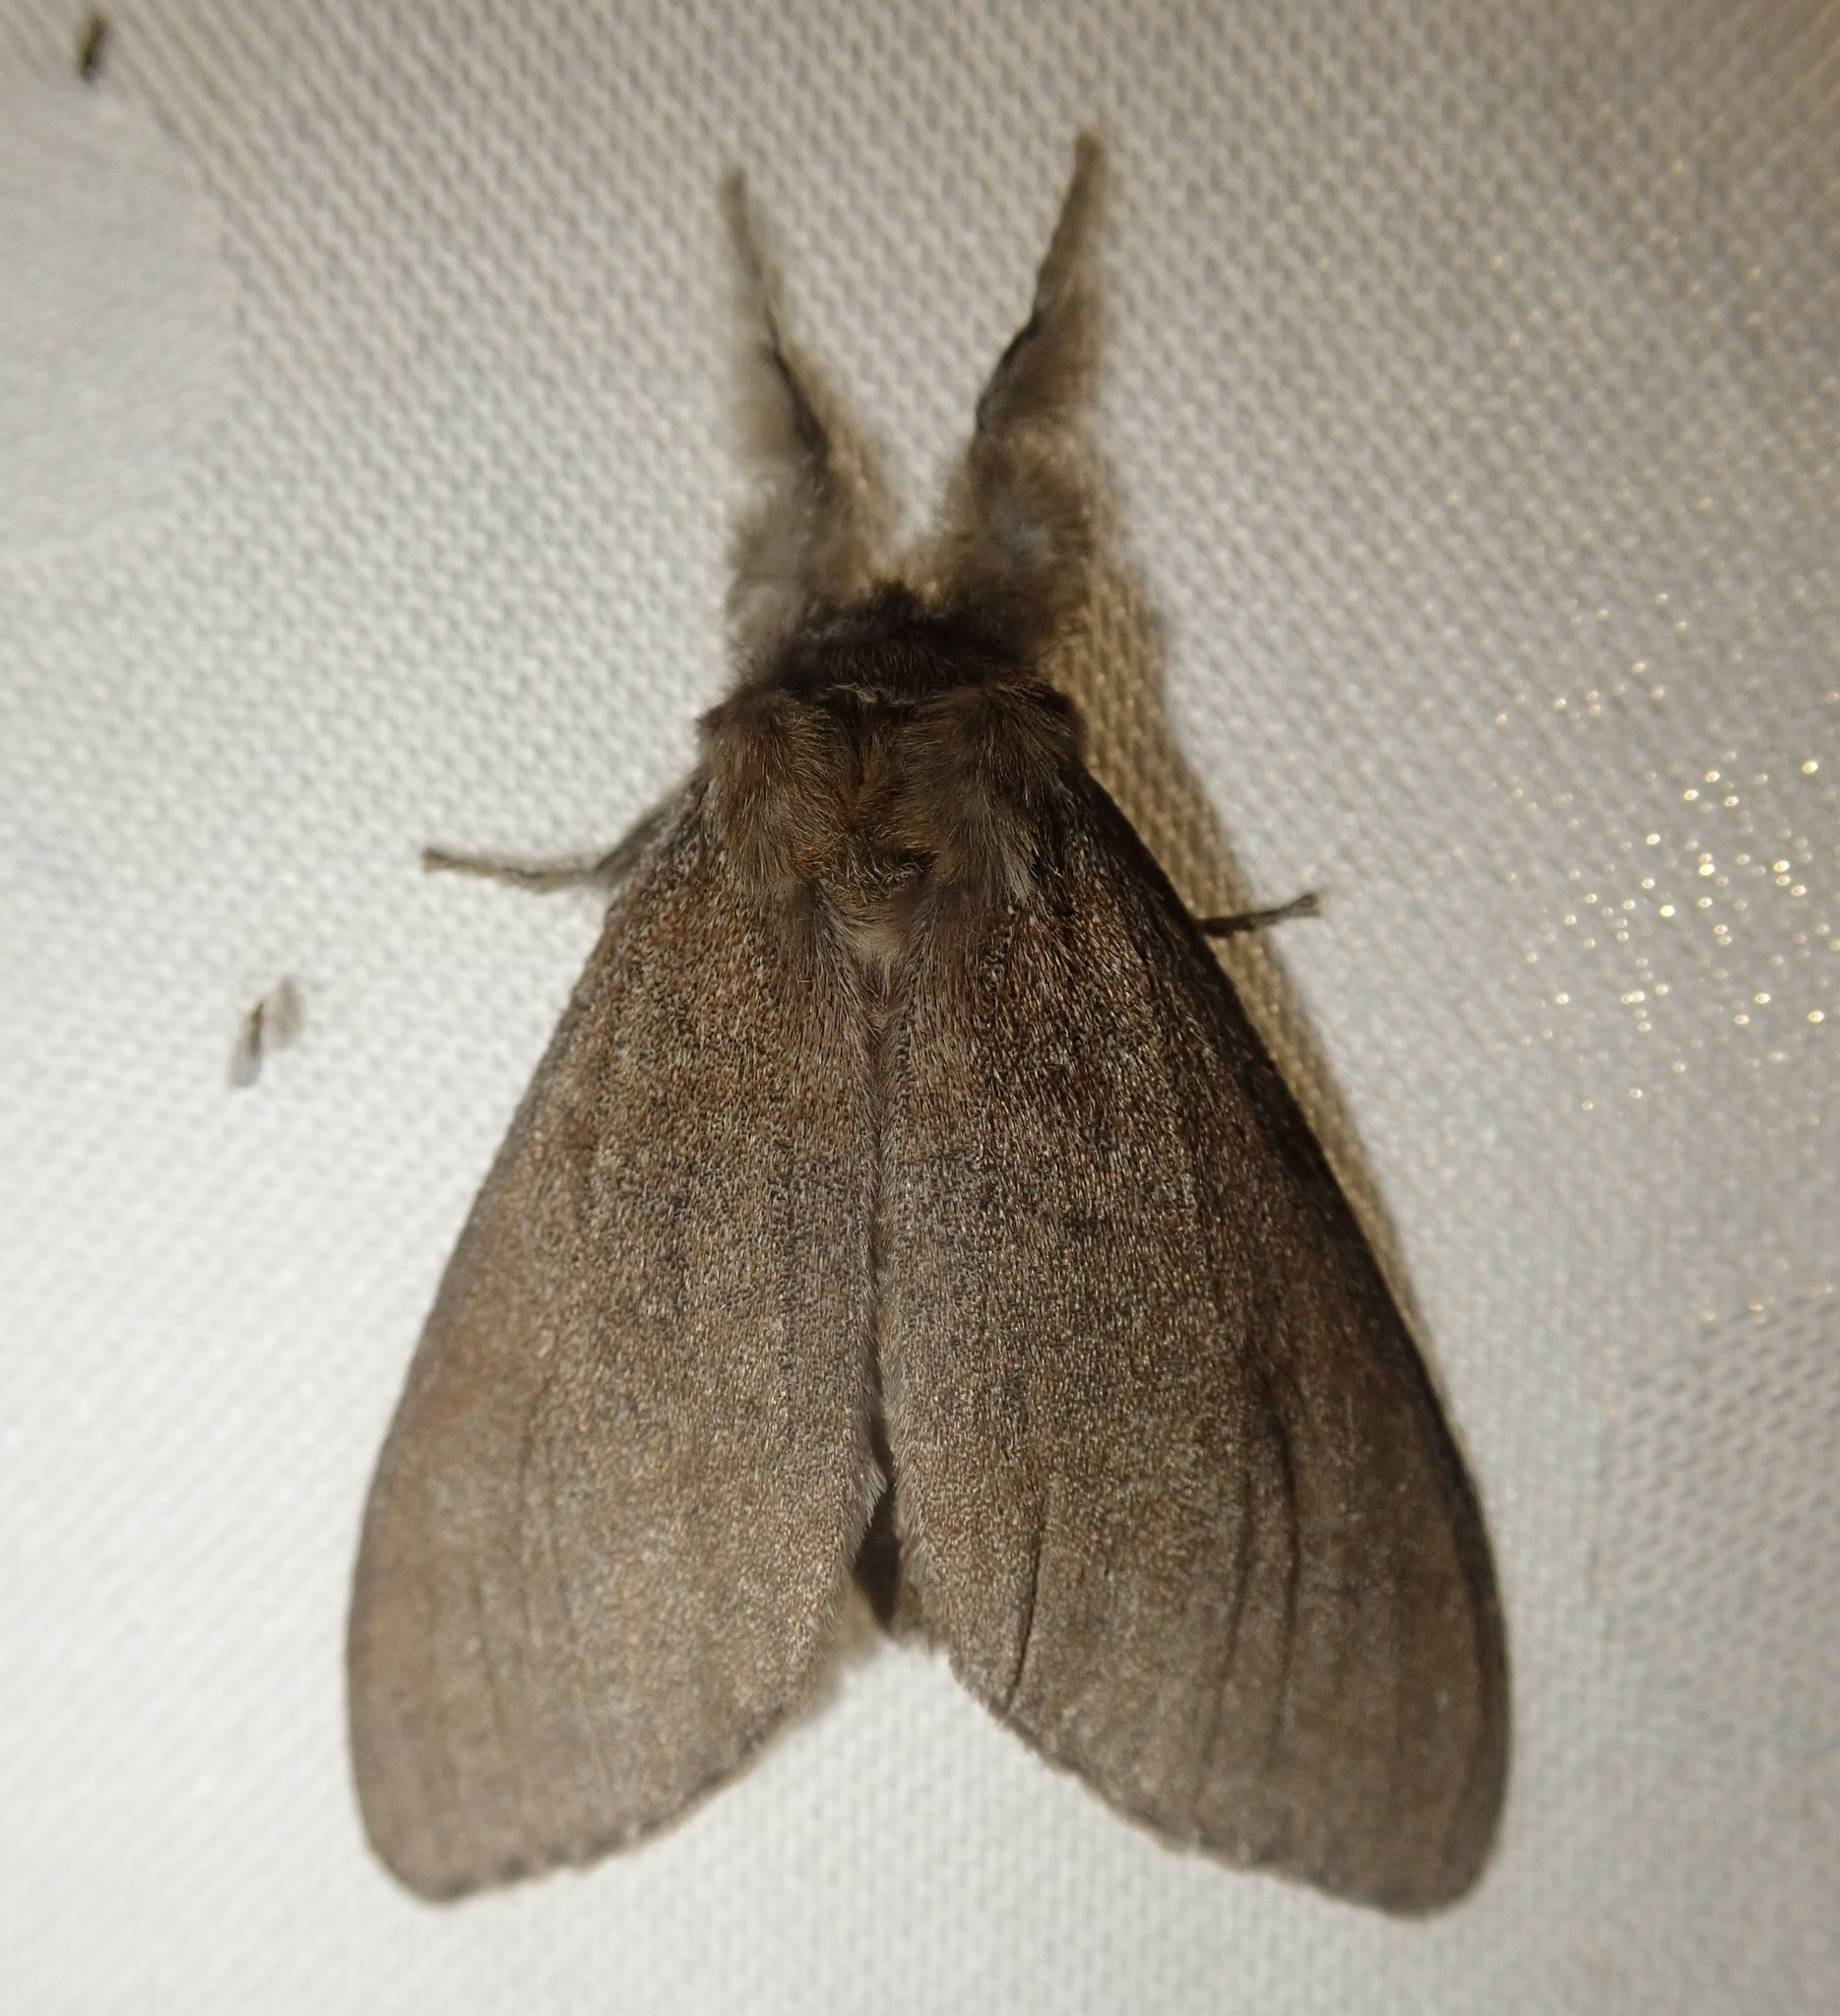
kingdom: Animalia
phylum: Arthropoda
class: Insecta
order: Lepidoptera
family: Erebidae
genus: Calliteara
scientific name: Calliteara pudibunda
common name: Pale tussock
